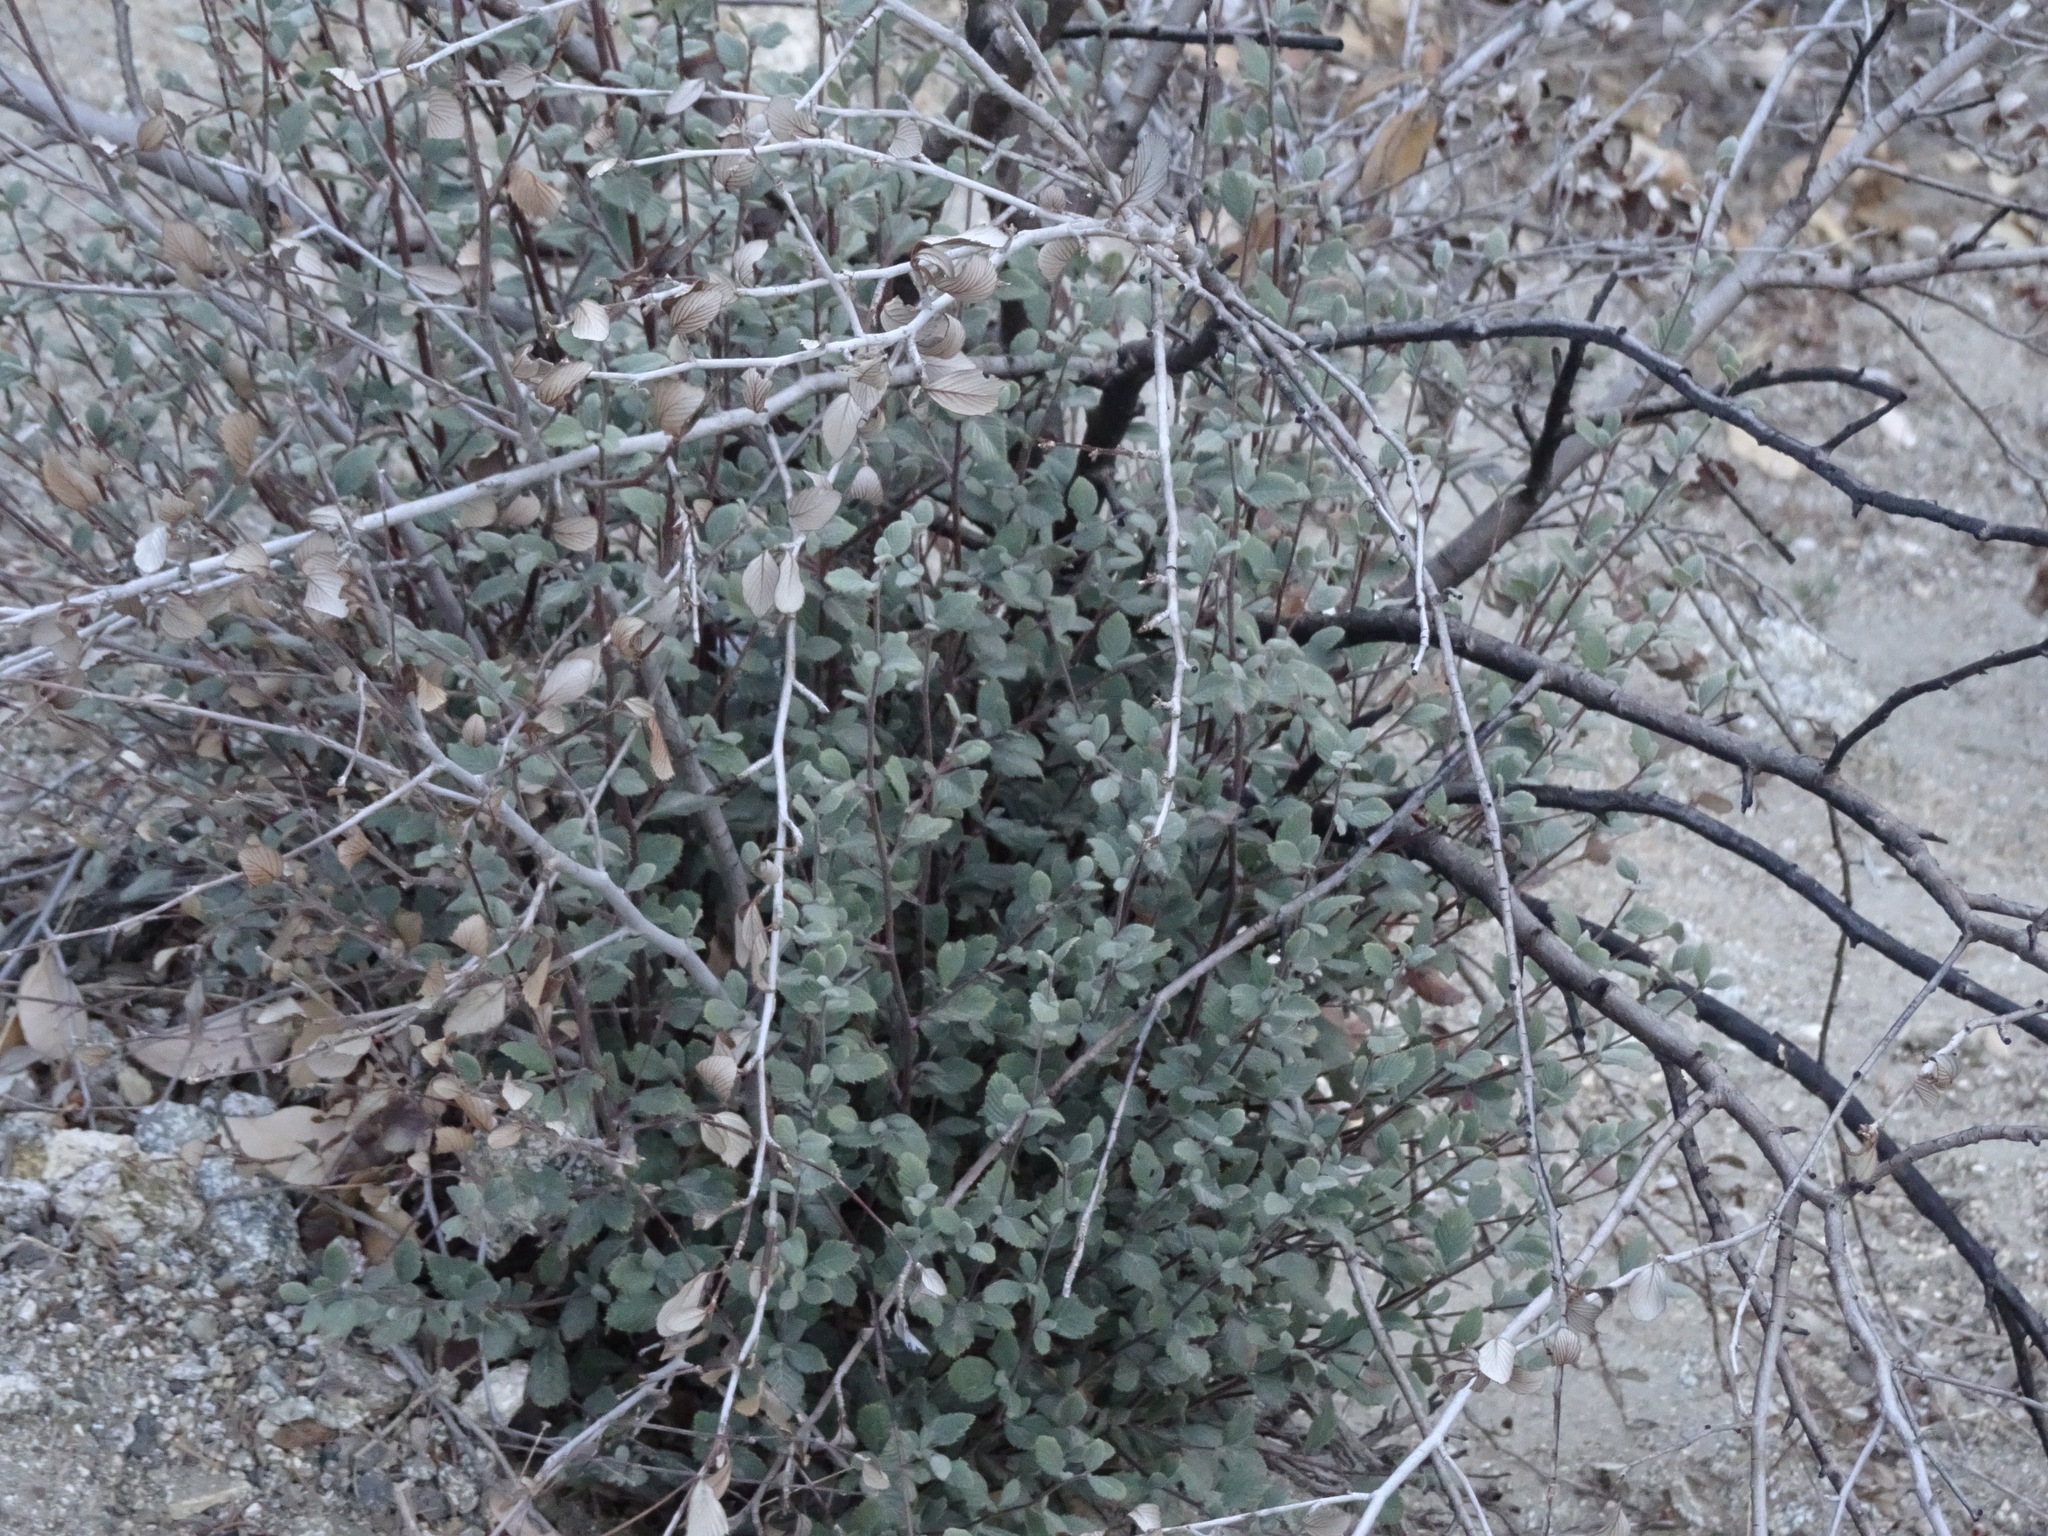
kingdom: Plantae
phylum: Tracheophyta
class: Magnoliopsida
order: Rosales
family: Rosaceae
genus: Cercocarpus
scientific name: Cercocarpus betuloides
